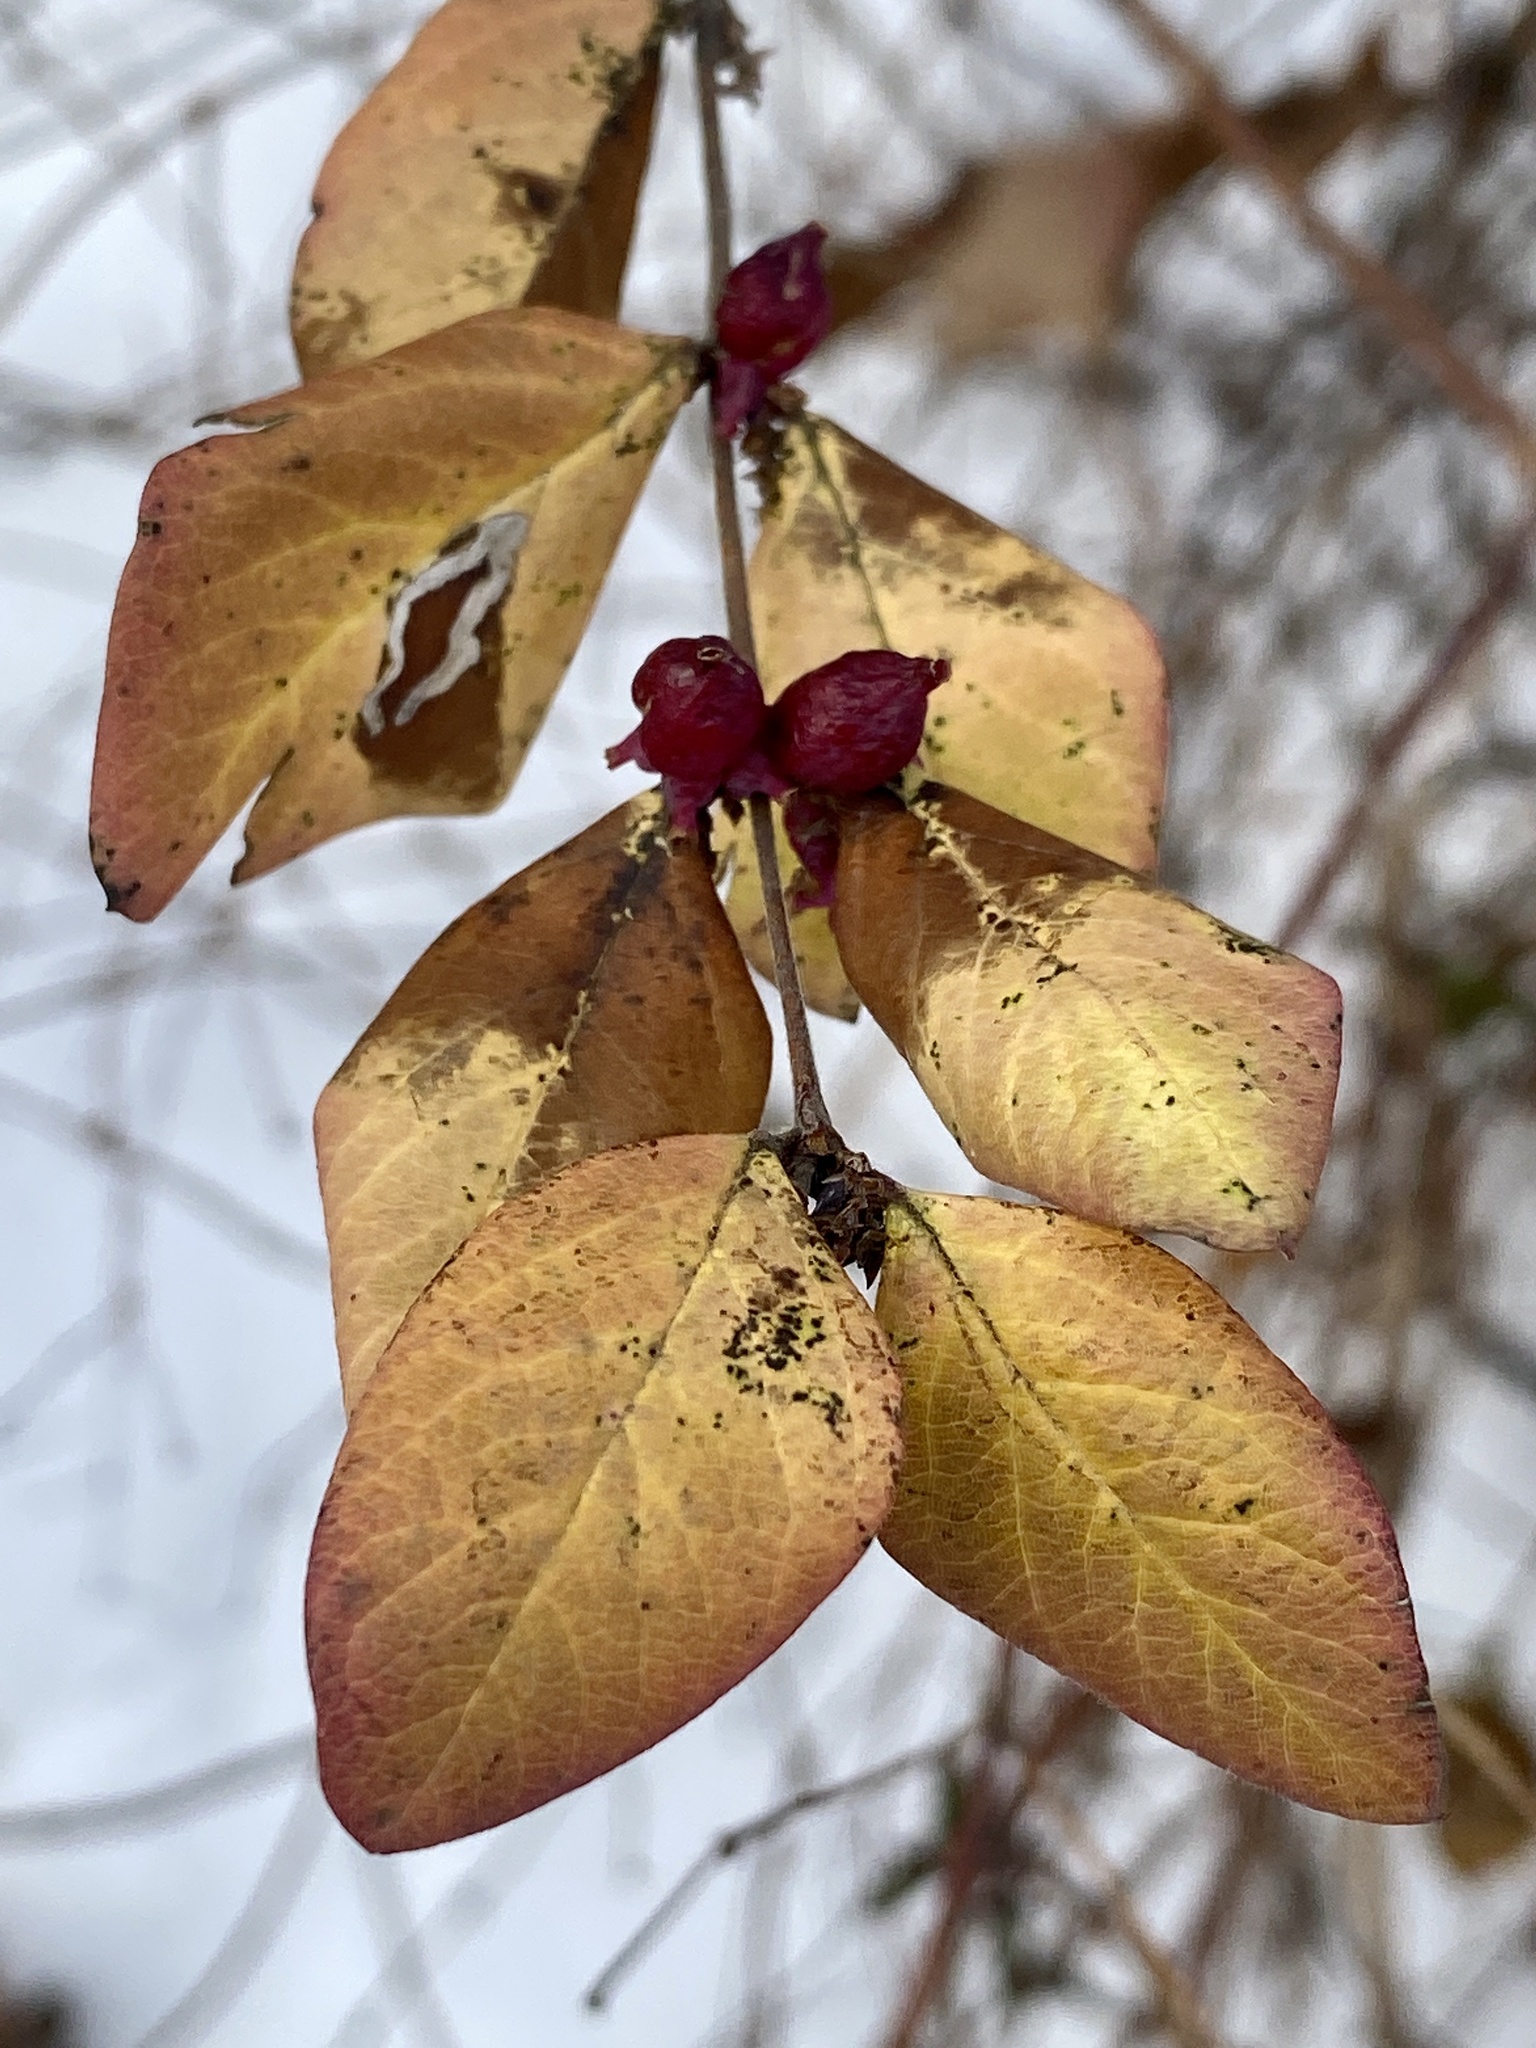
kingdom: Plantae
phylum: Tracheophyta
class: Magnoliopsida
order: Dipsacales
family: Caprifoliaceae
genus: Symphoricarpos
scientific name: Symphoricarpos orbiculatus
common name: Coralberry
